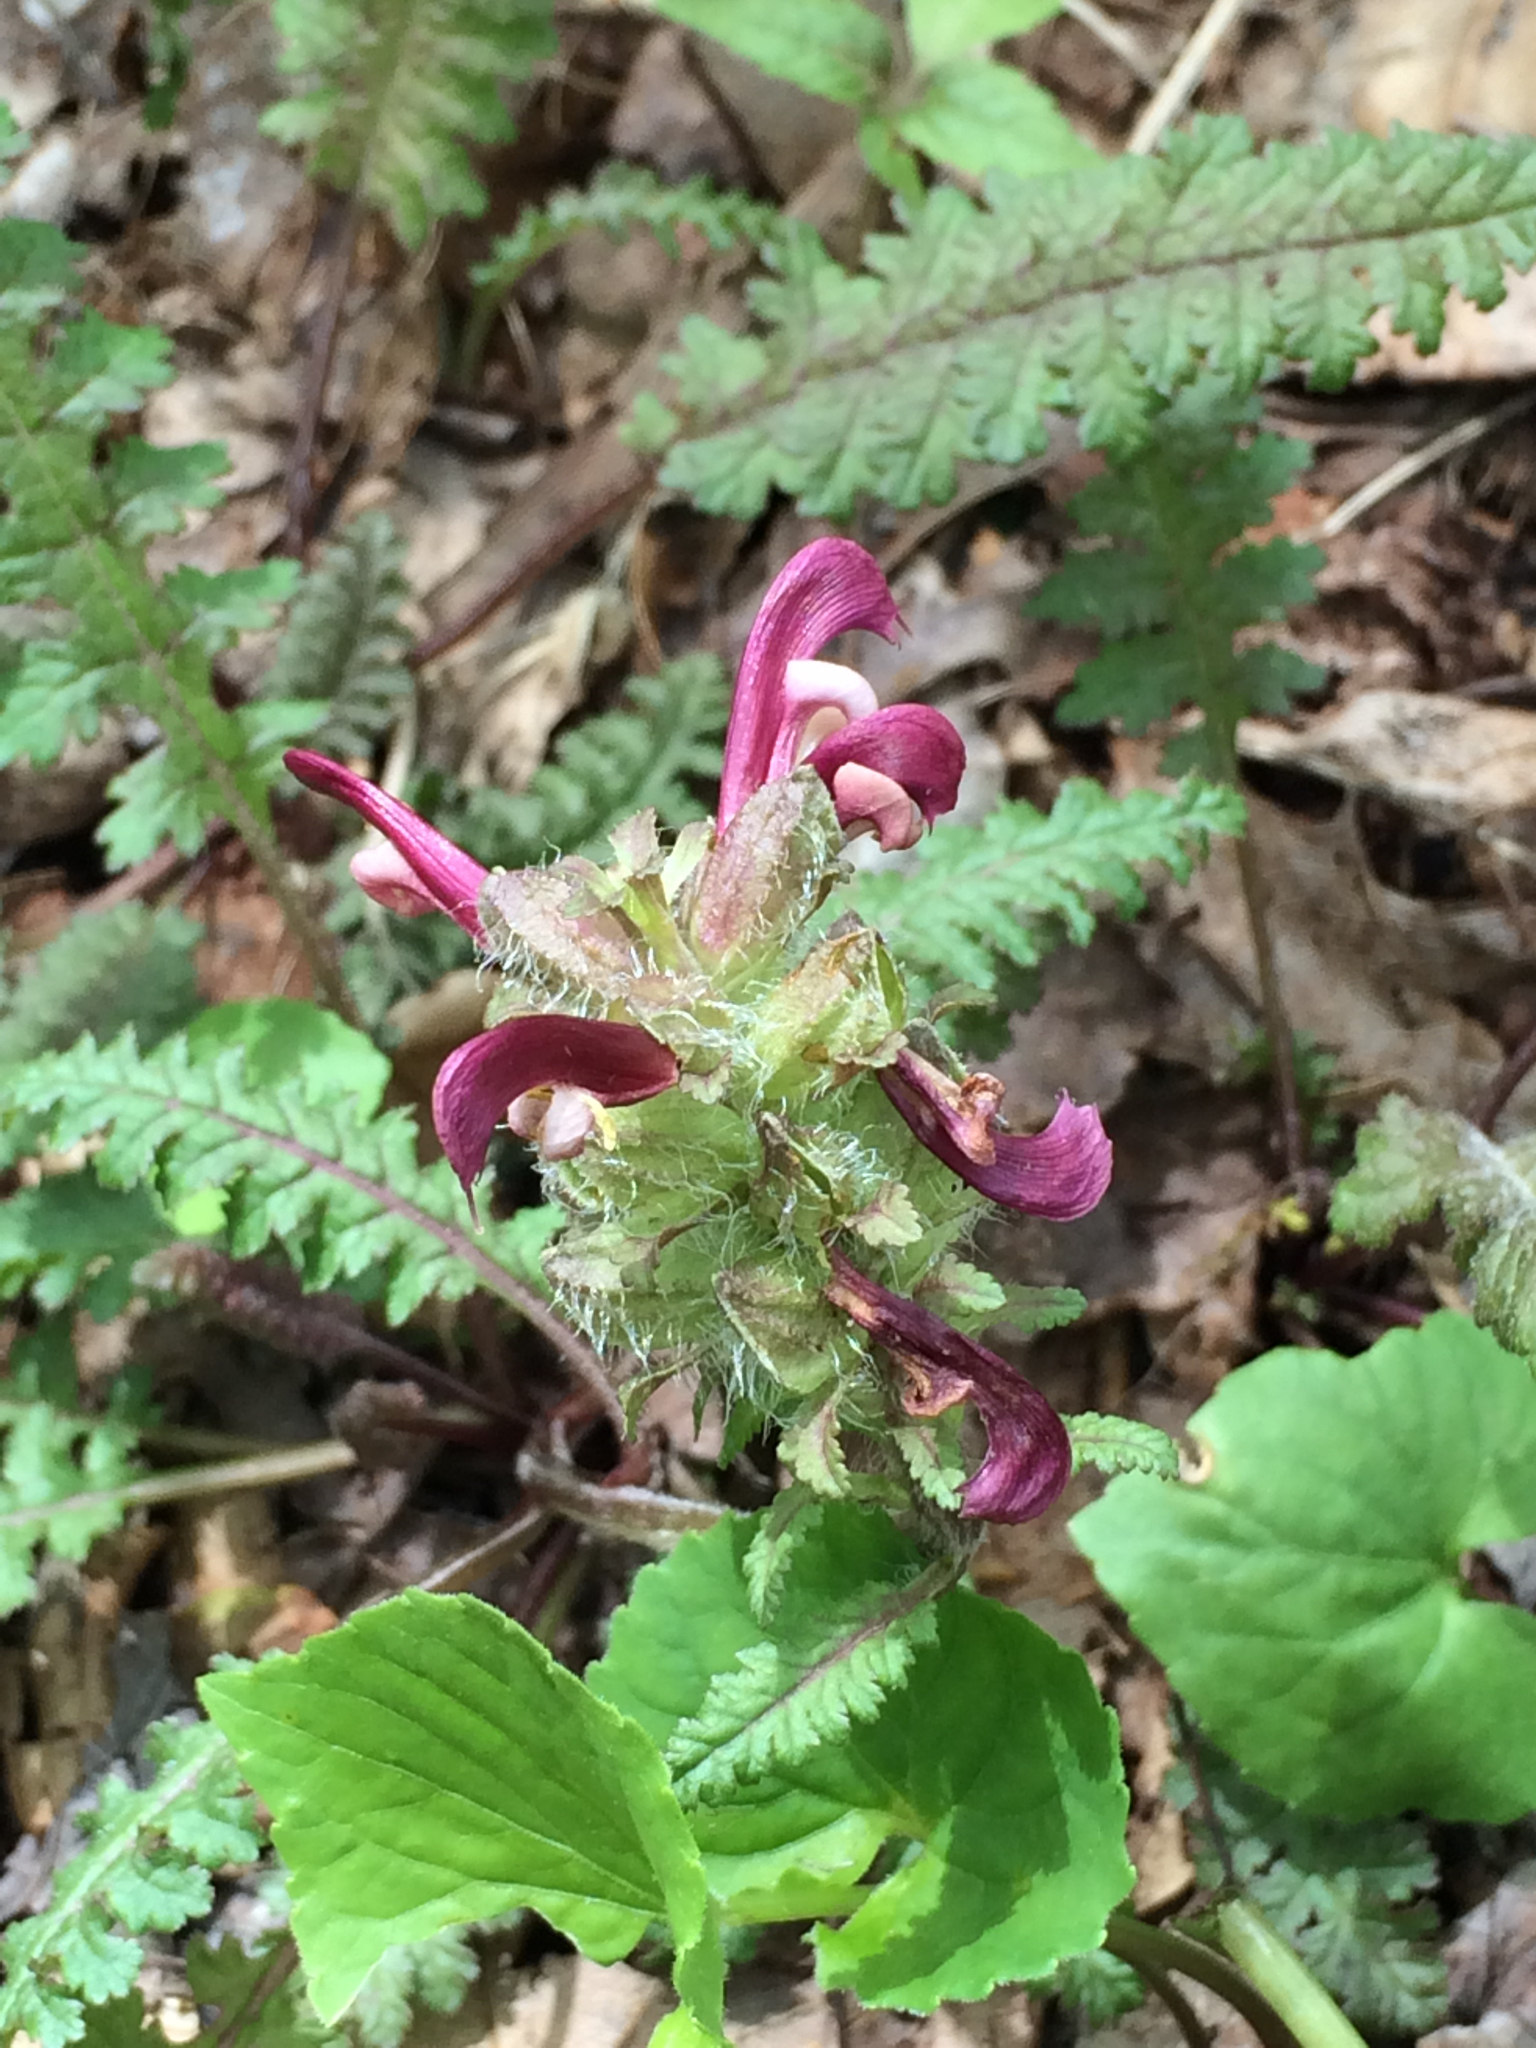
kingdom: Plantae
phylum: Tracheophyta
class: Magnoliopsida
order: Lamiales
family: Orobanchaceae
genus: Pedicularis
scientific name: Pedicularis canadensis
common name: Early lousewort
